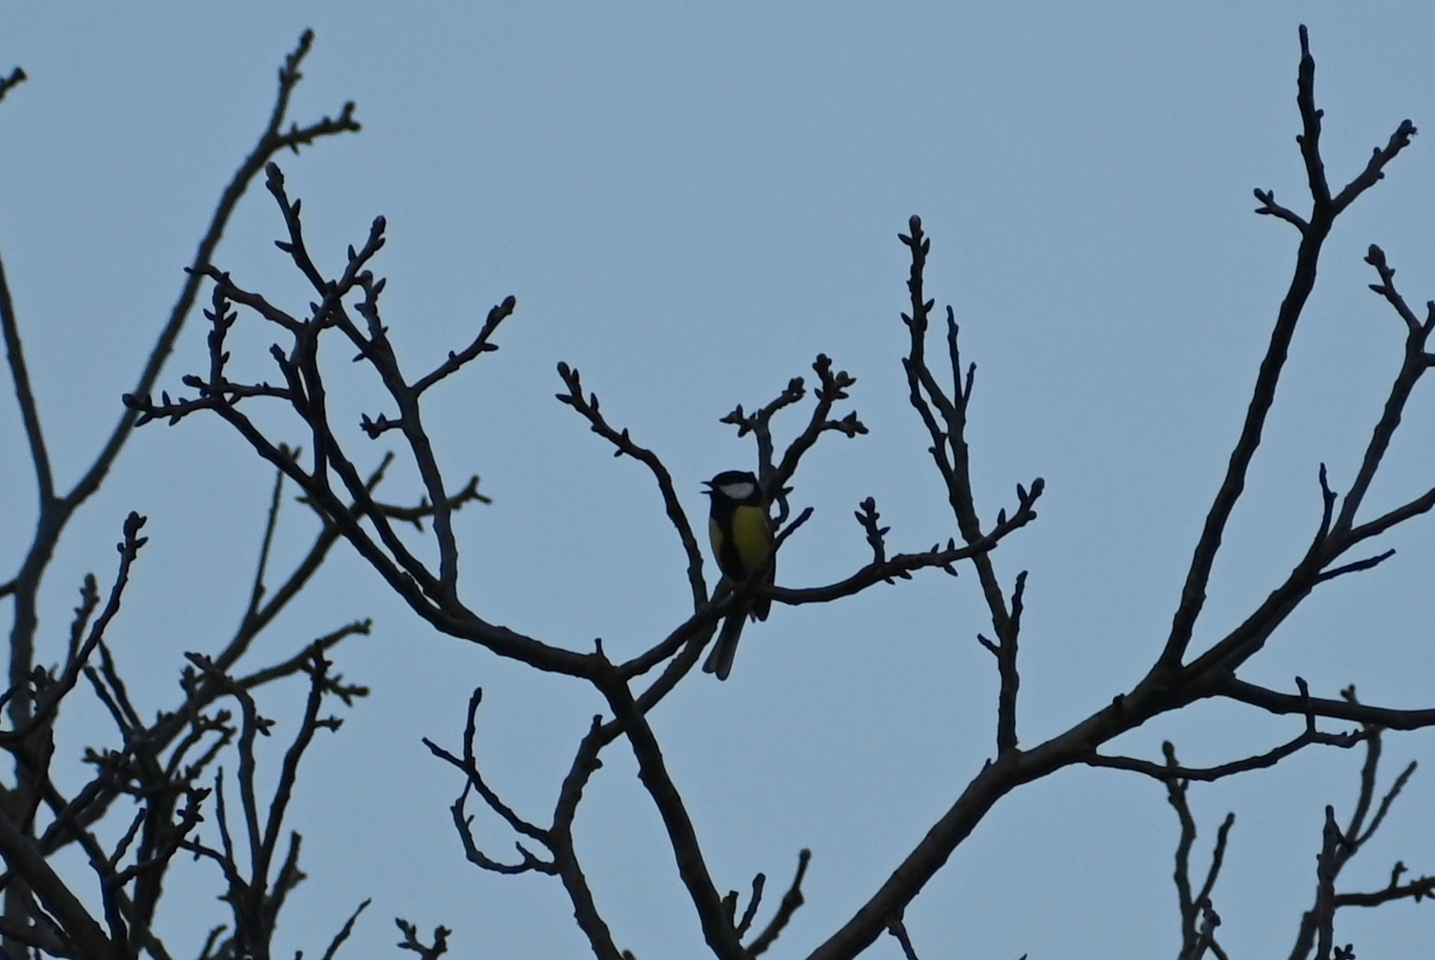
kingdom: Animalia
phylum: Chordata
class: Aves
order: Passeriformes
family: Paridae
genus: Parus
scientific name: Parus major
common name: Great tit
